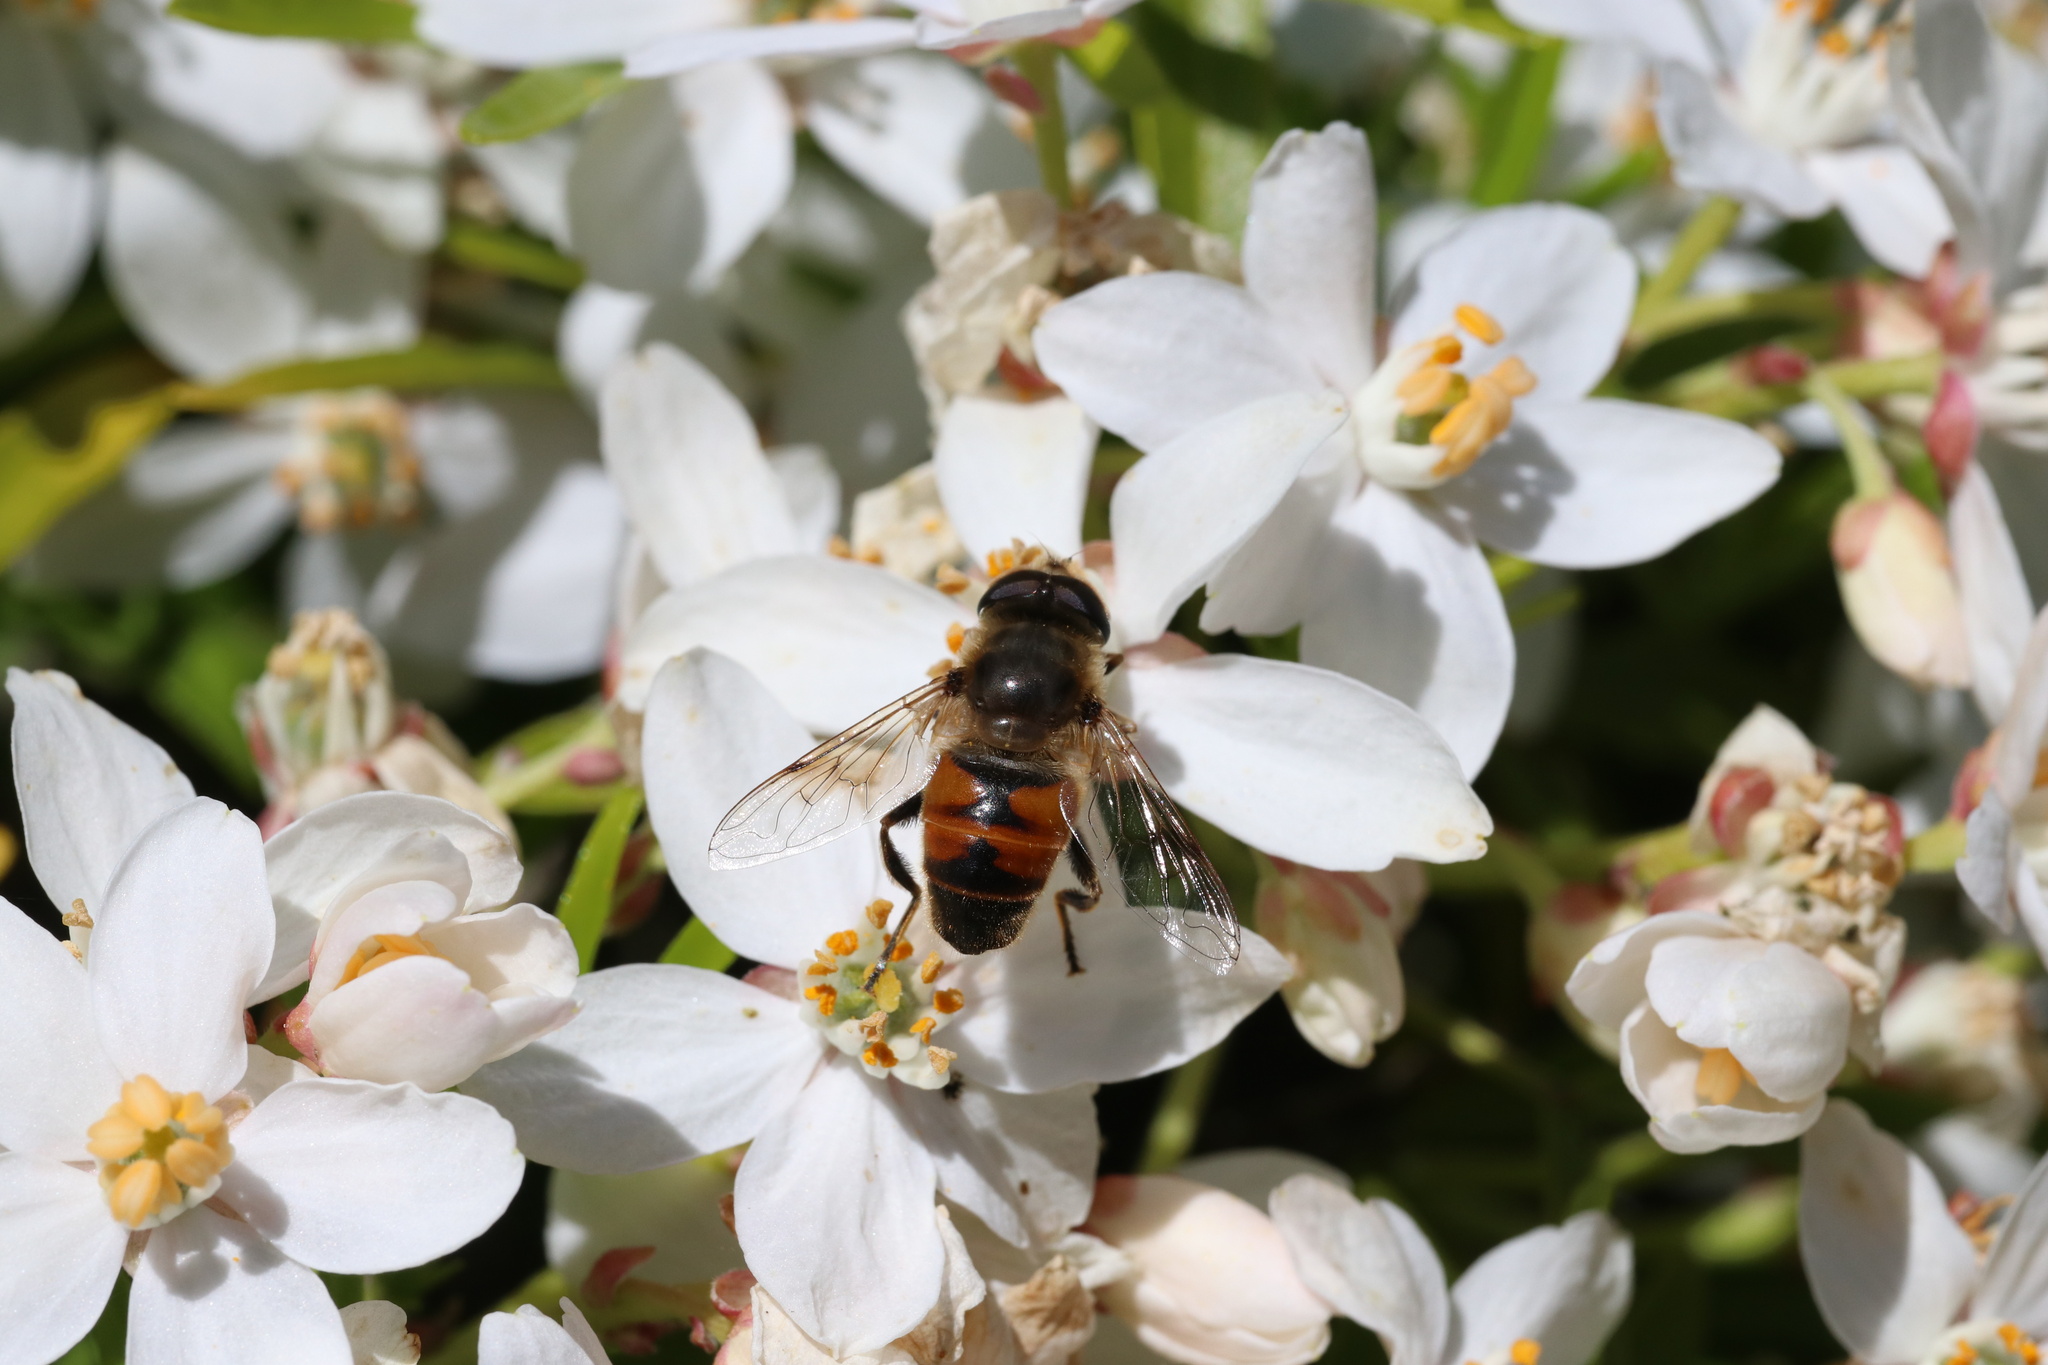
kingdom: Animalia
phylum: Arthropoda
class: Insecta
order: Diptera
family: Syrphidae
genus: Eristalis
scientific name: Eristalis tenax
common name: Drone fly
